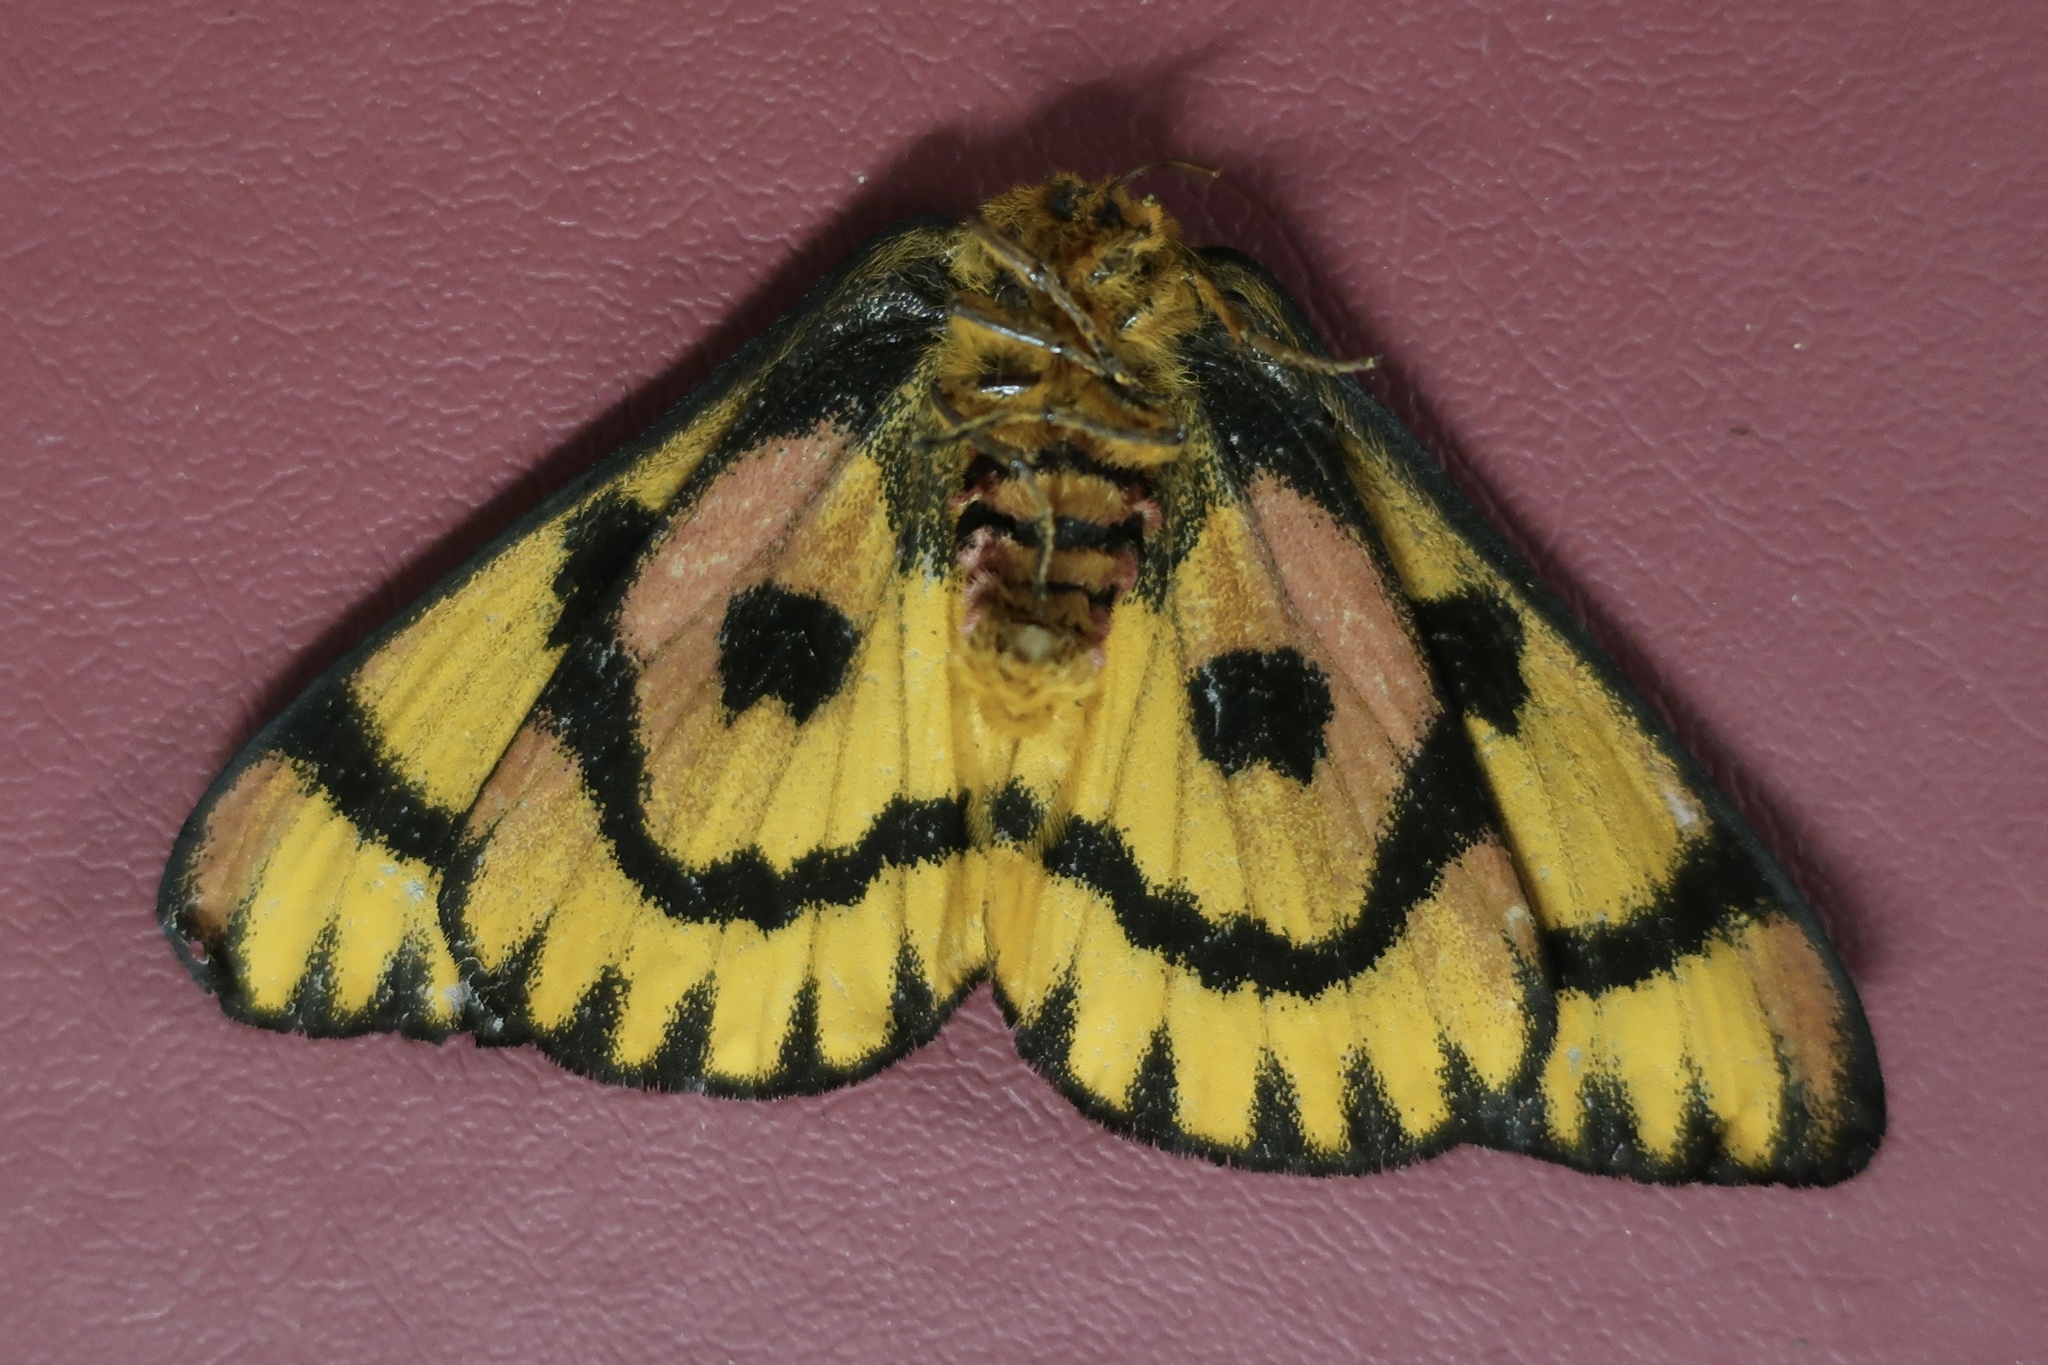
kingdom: Animalia
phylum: Arthropoda
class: Insecta
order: Lepidoptera
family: Saturniidae
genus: Hemileuca
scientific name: Hemileuca eglanterina
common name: Western sheepmoth
